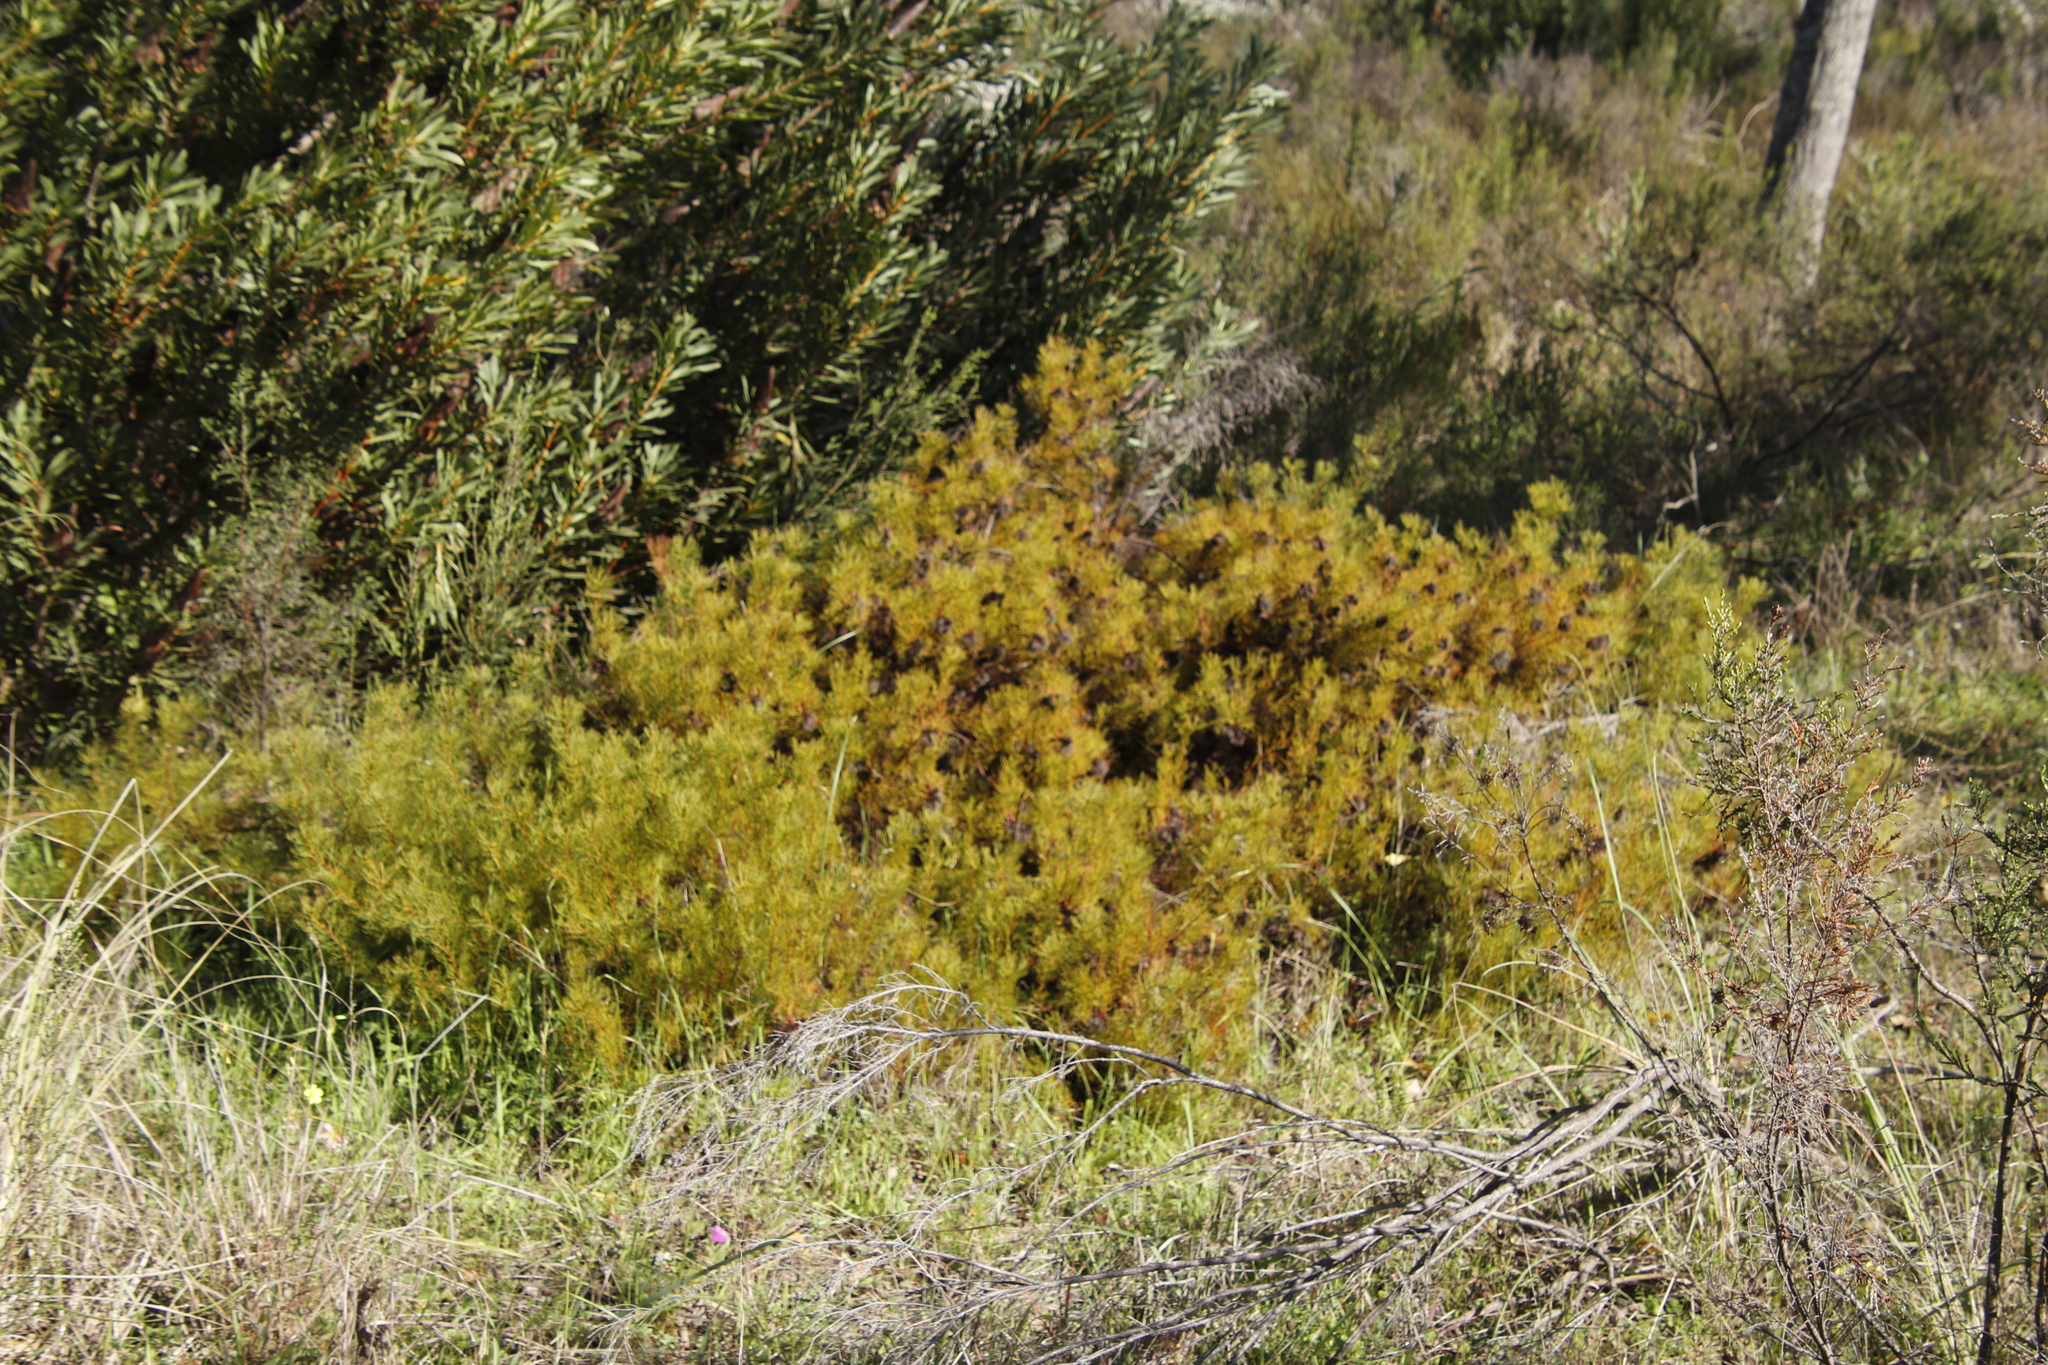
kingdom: Plantae
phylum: Tracheophyta
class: Magnoliopsida
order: Proteales
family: Proteaceae
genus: Serruria
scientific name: Serruria
